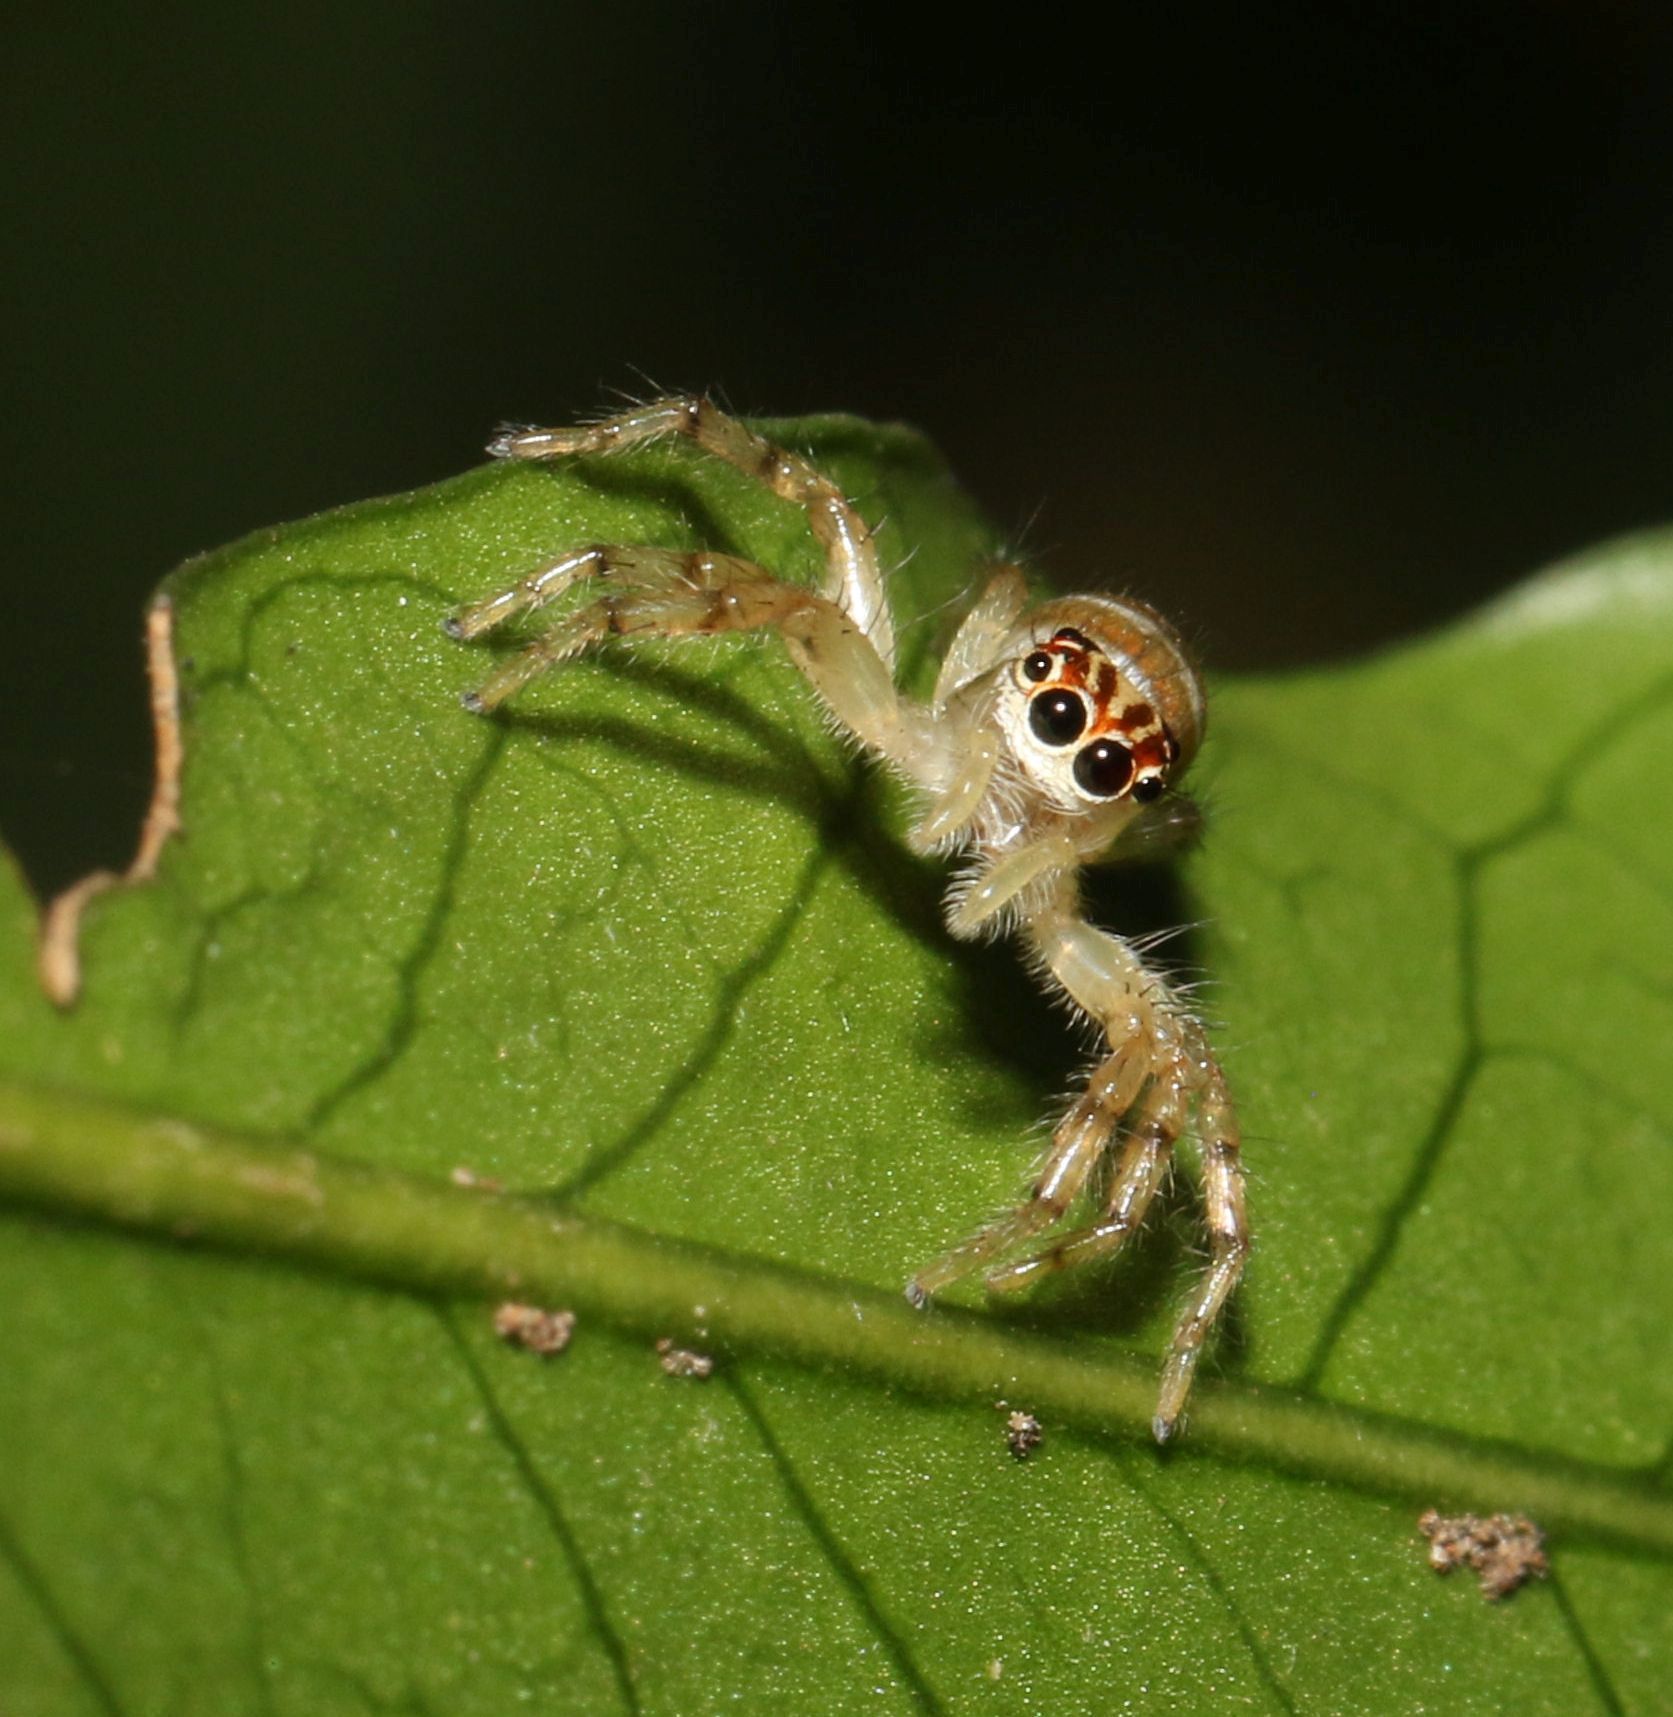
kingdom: Animalia
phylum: Arthropoda
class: Arachnida
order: Araneae
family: Salticidae
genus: Brancus
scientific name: Brancus mustelus
